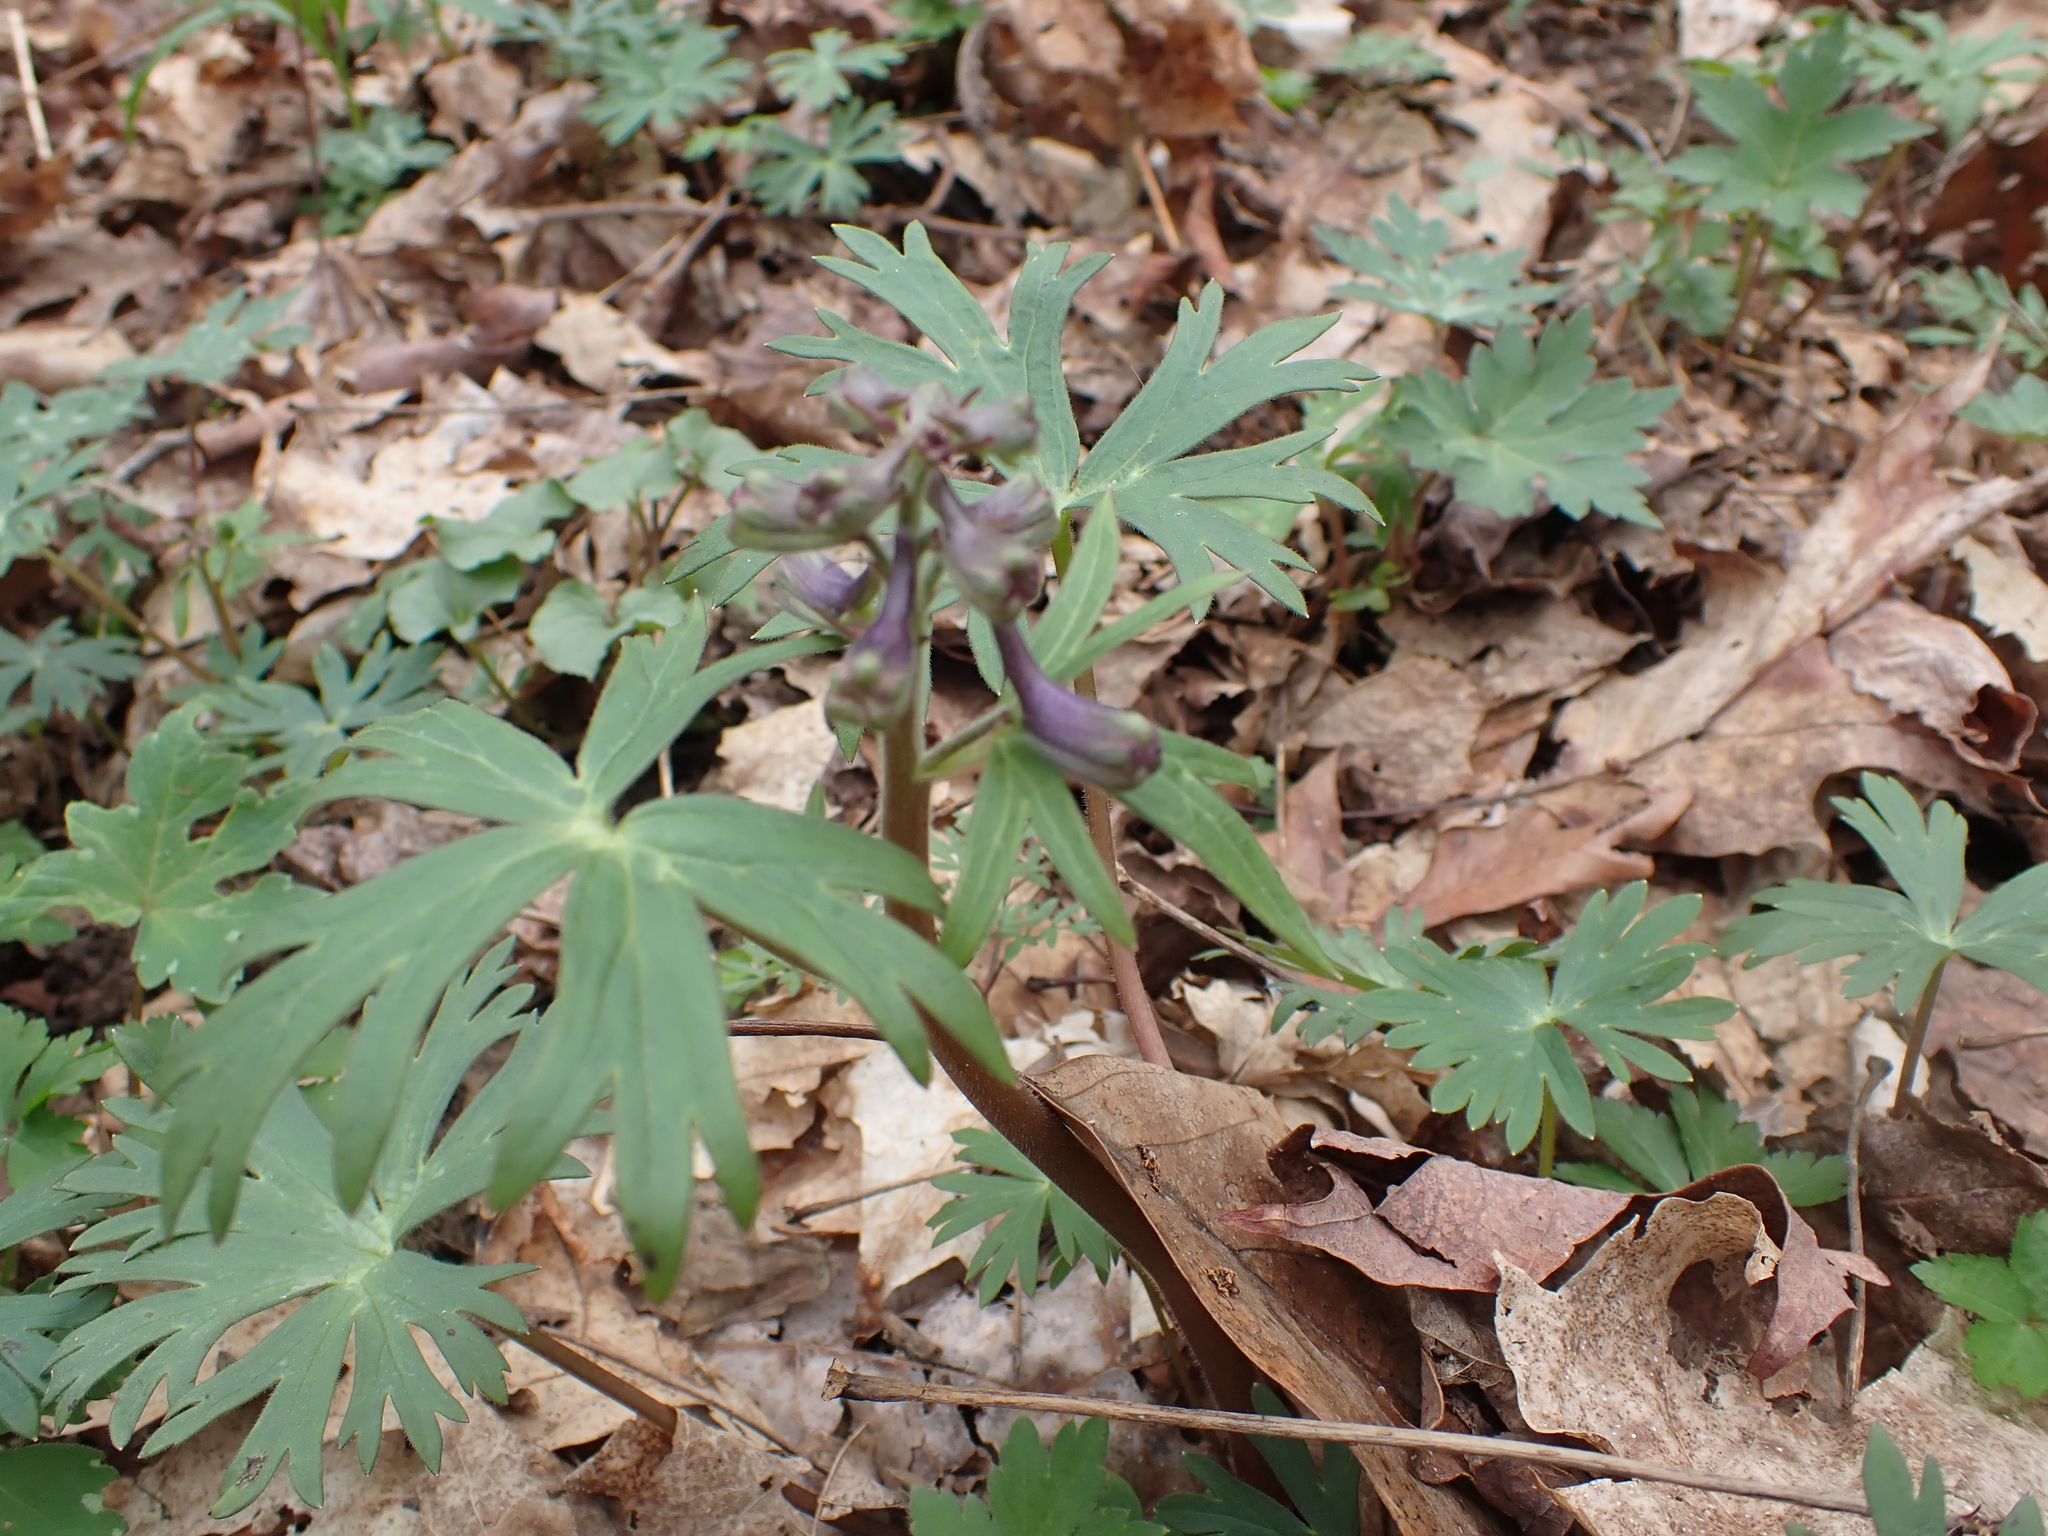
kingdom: Plantae
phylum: Tracheophyta
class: Magnoliopsida
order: Ranunculales
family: Ranunculaceae
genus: Delphinium
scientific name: Delphinium tricorne
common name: Dwarf larkspur
